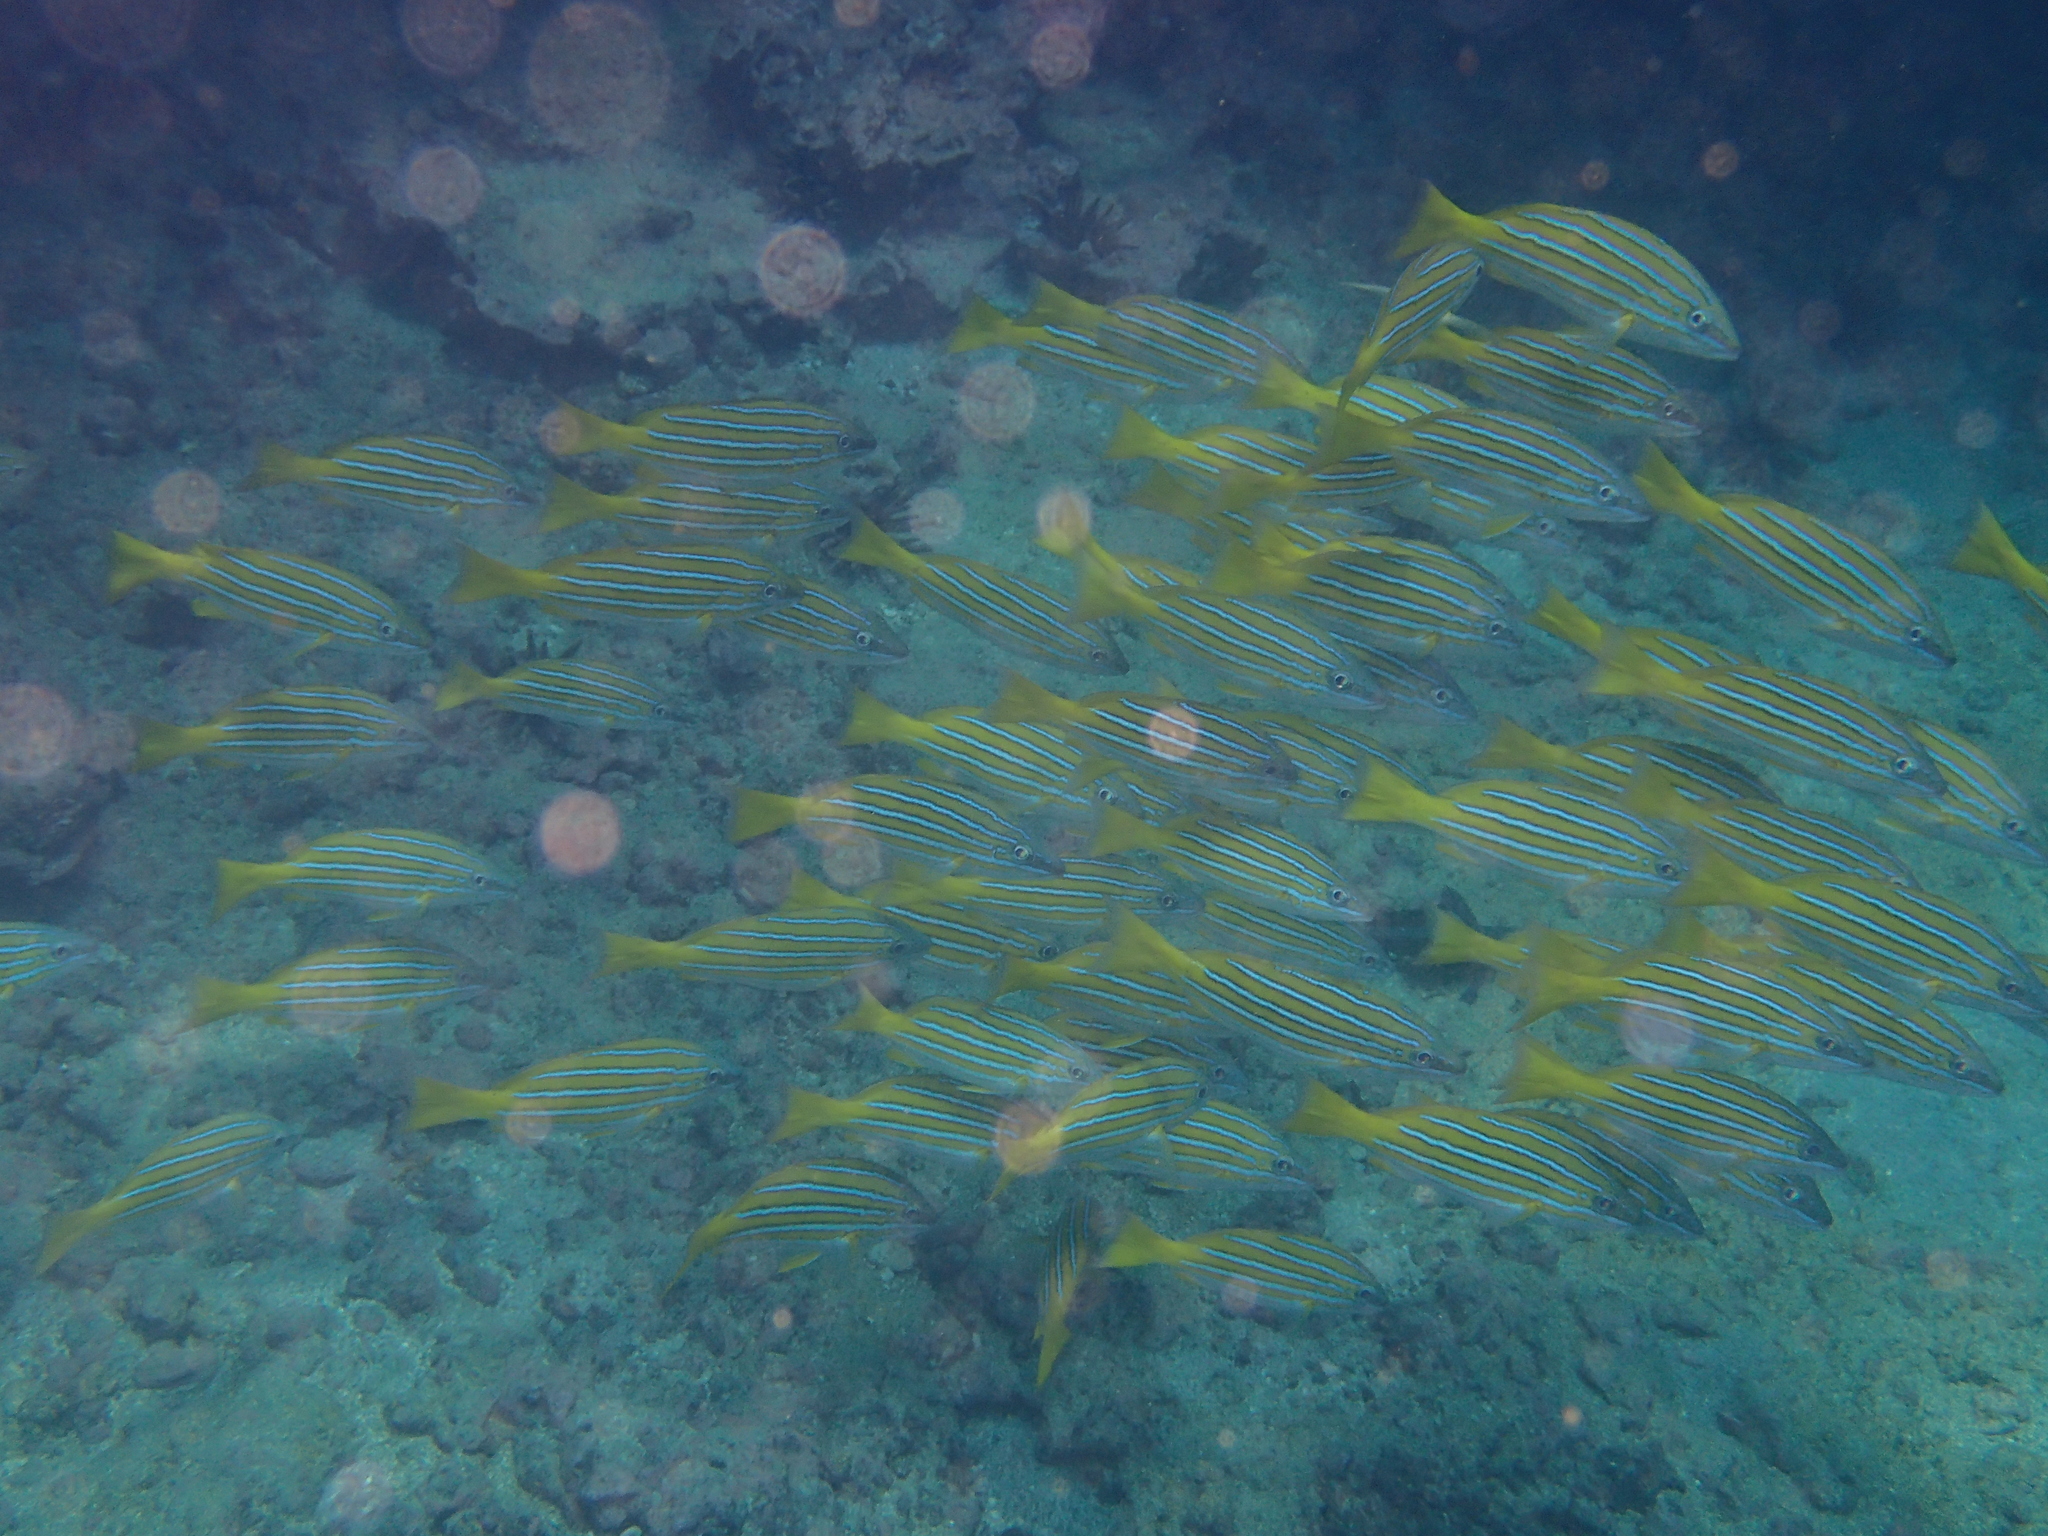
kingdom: Animalia
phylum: Chordata
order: Perciformes
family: Lutjanidae
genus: Lutjanus
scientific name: Lutjanus viridis
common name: Blue and gold snapper
